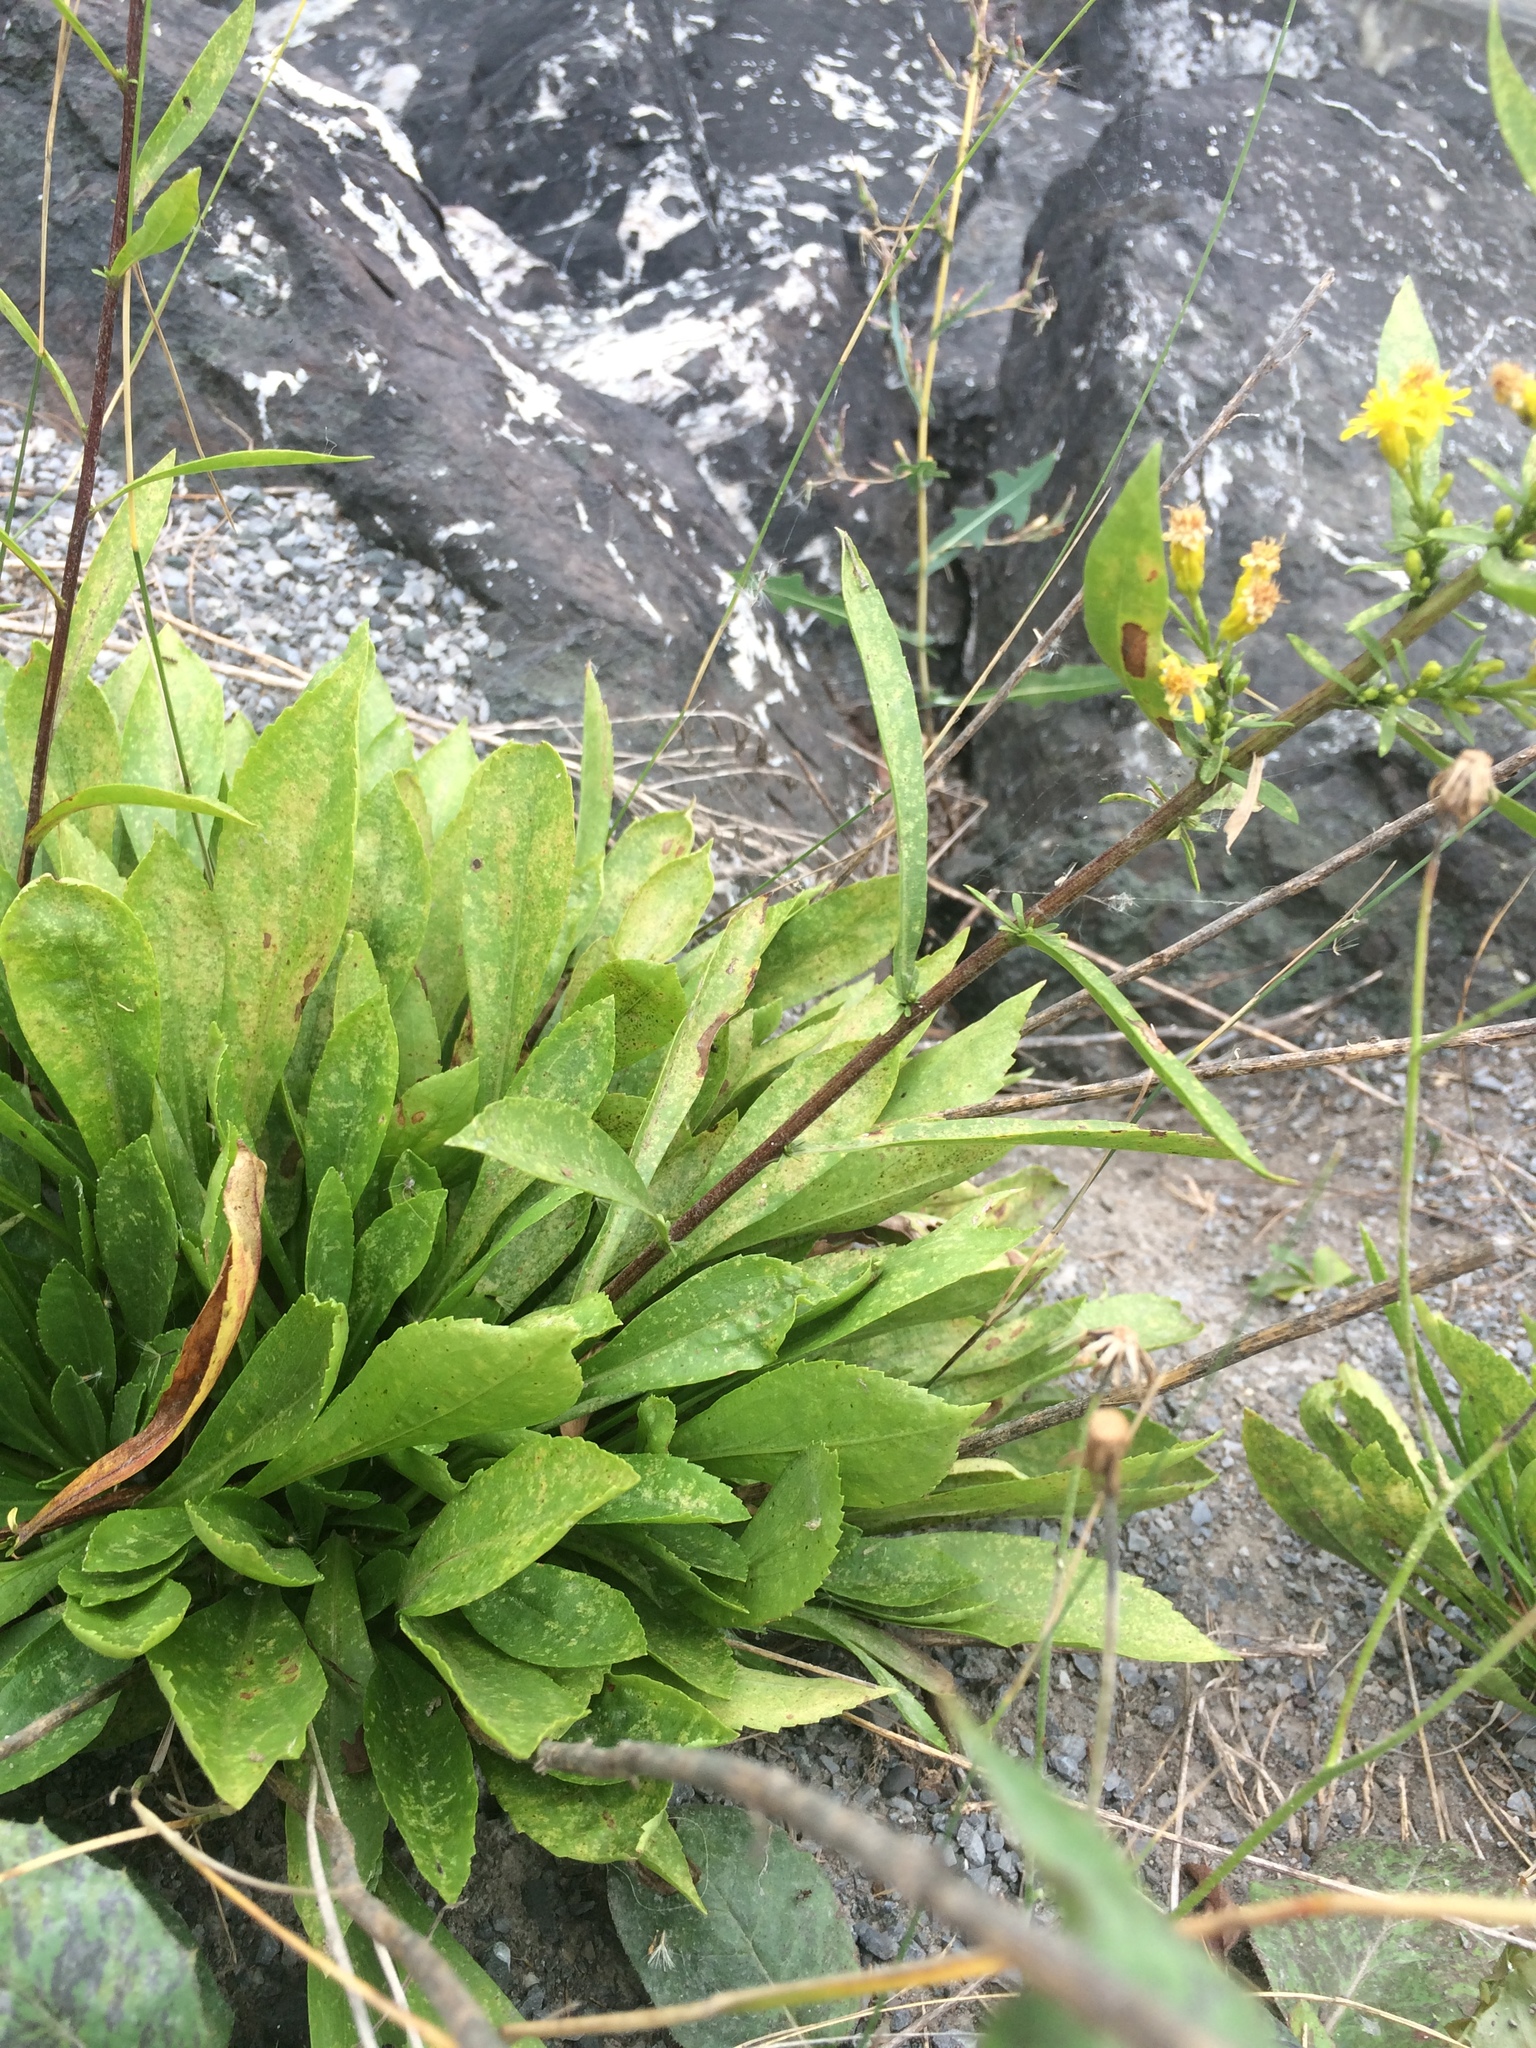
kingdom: Plantae
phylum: Tracheophyta
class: Magnoliopsida
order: Asterales
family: Asteraceae
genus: Solidago
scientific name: Solidago racemosa
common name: Lake ontario goldenrod
